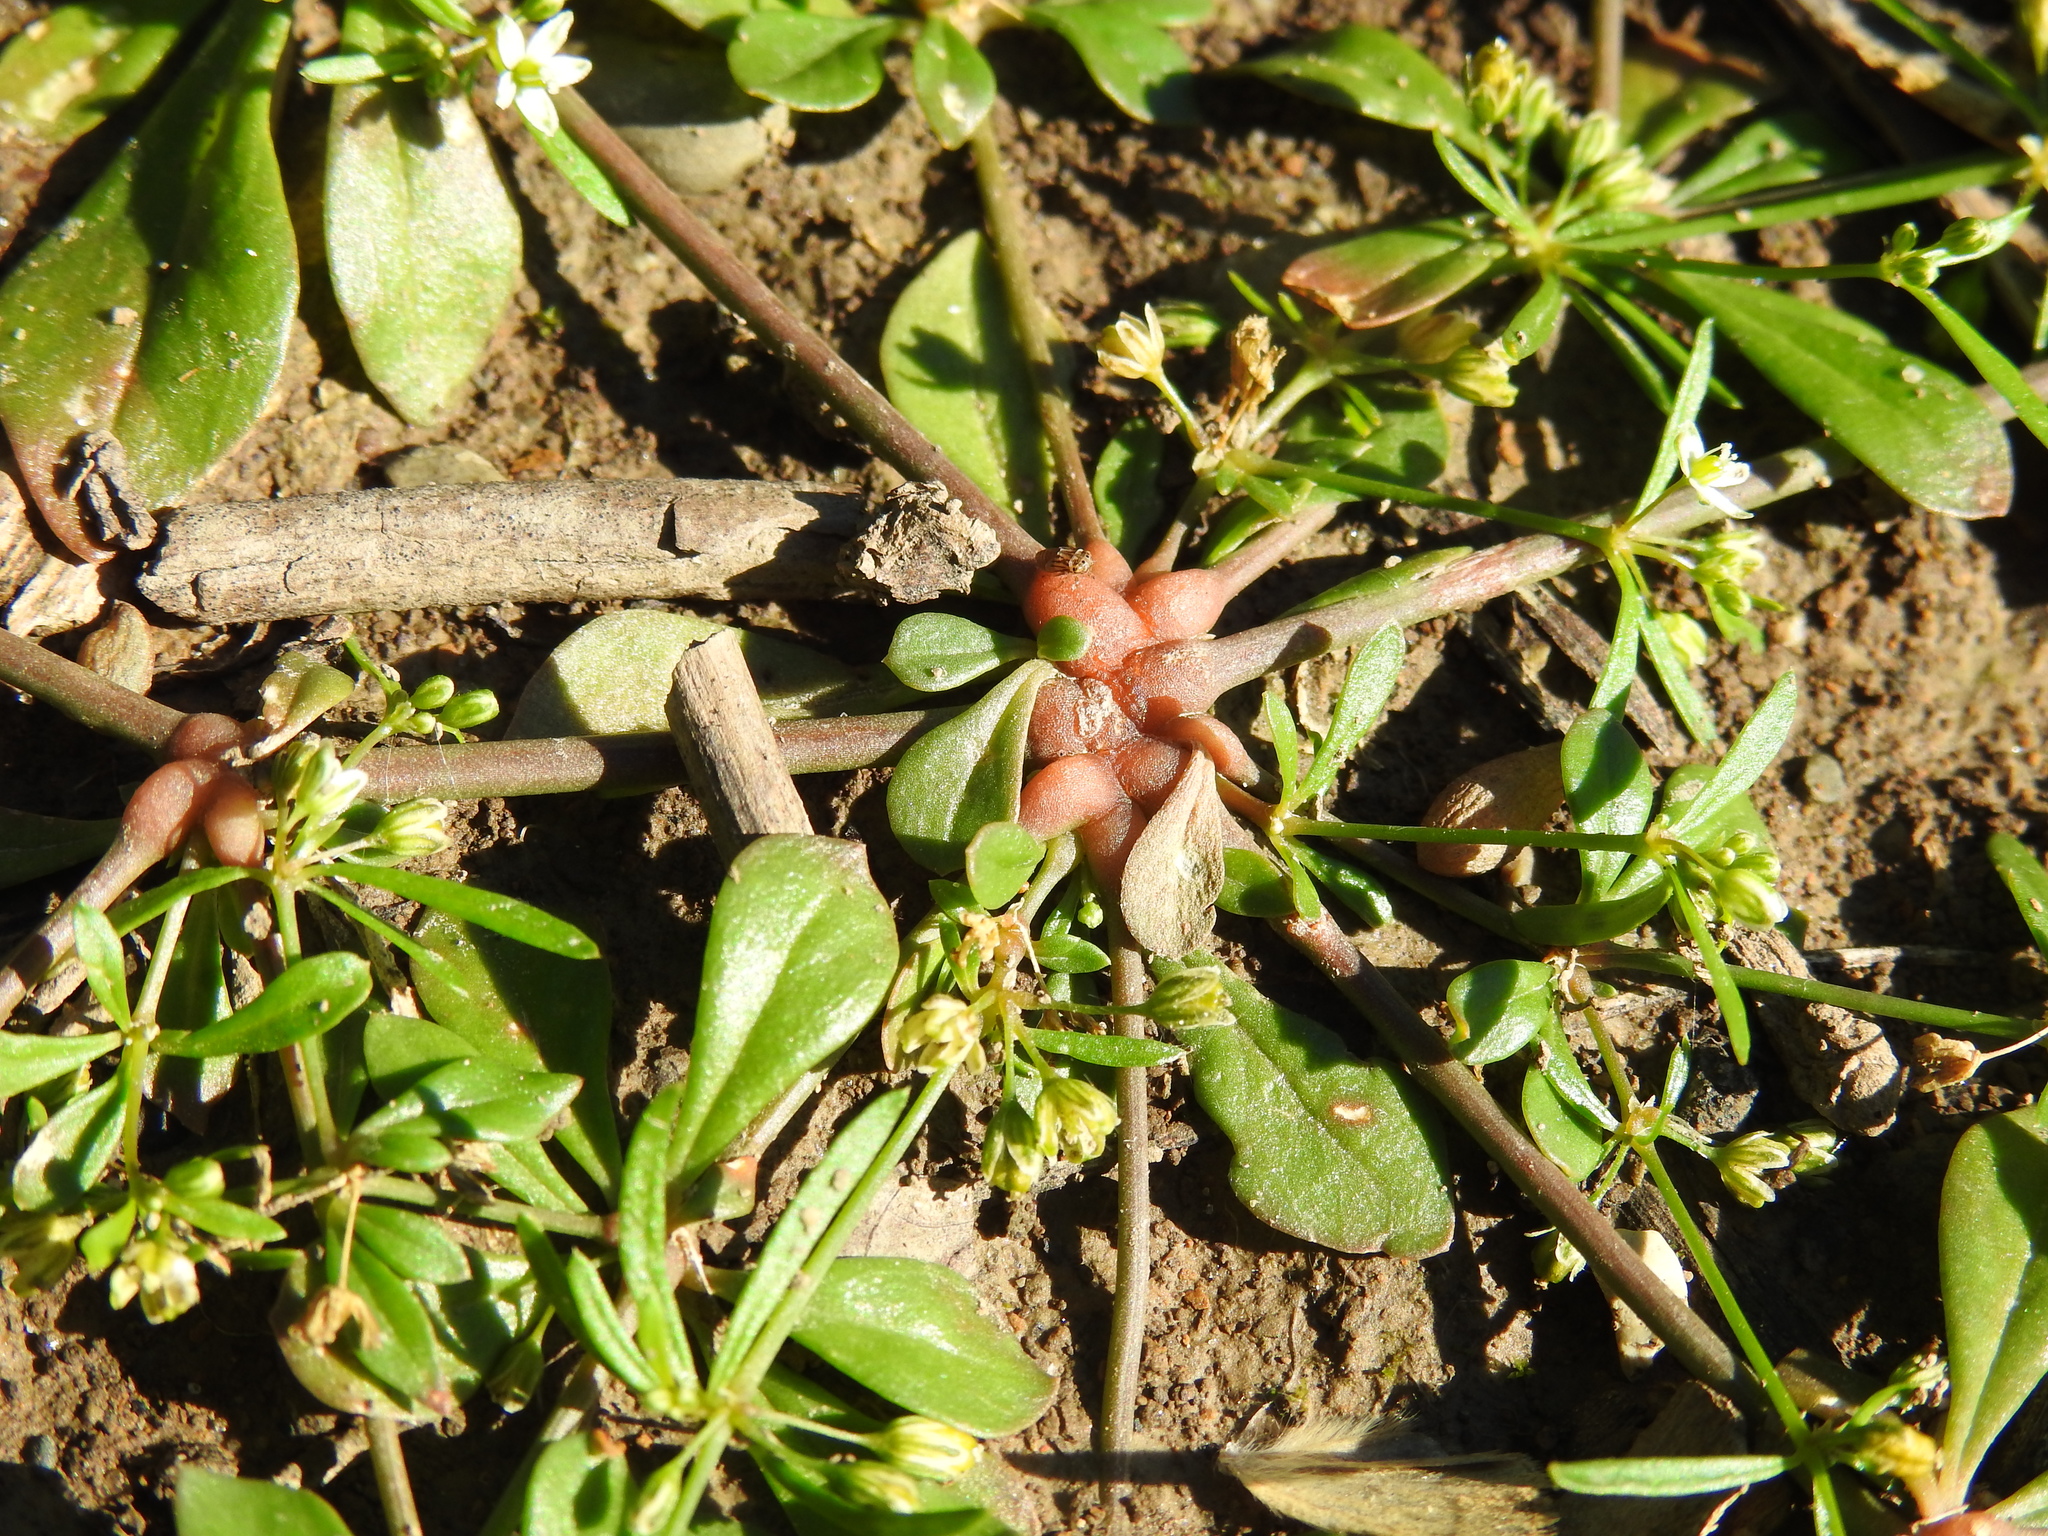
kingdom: Plantae
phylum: Tracheophyta
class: Magnoliopsida
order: Caryophyllales
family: Molluginaceae
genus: Mollugo
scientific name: Mollugo verticillata
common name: Green carpetweed
